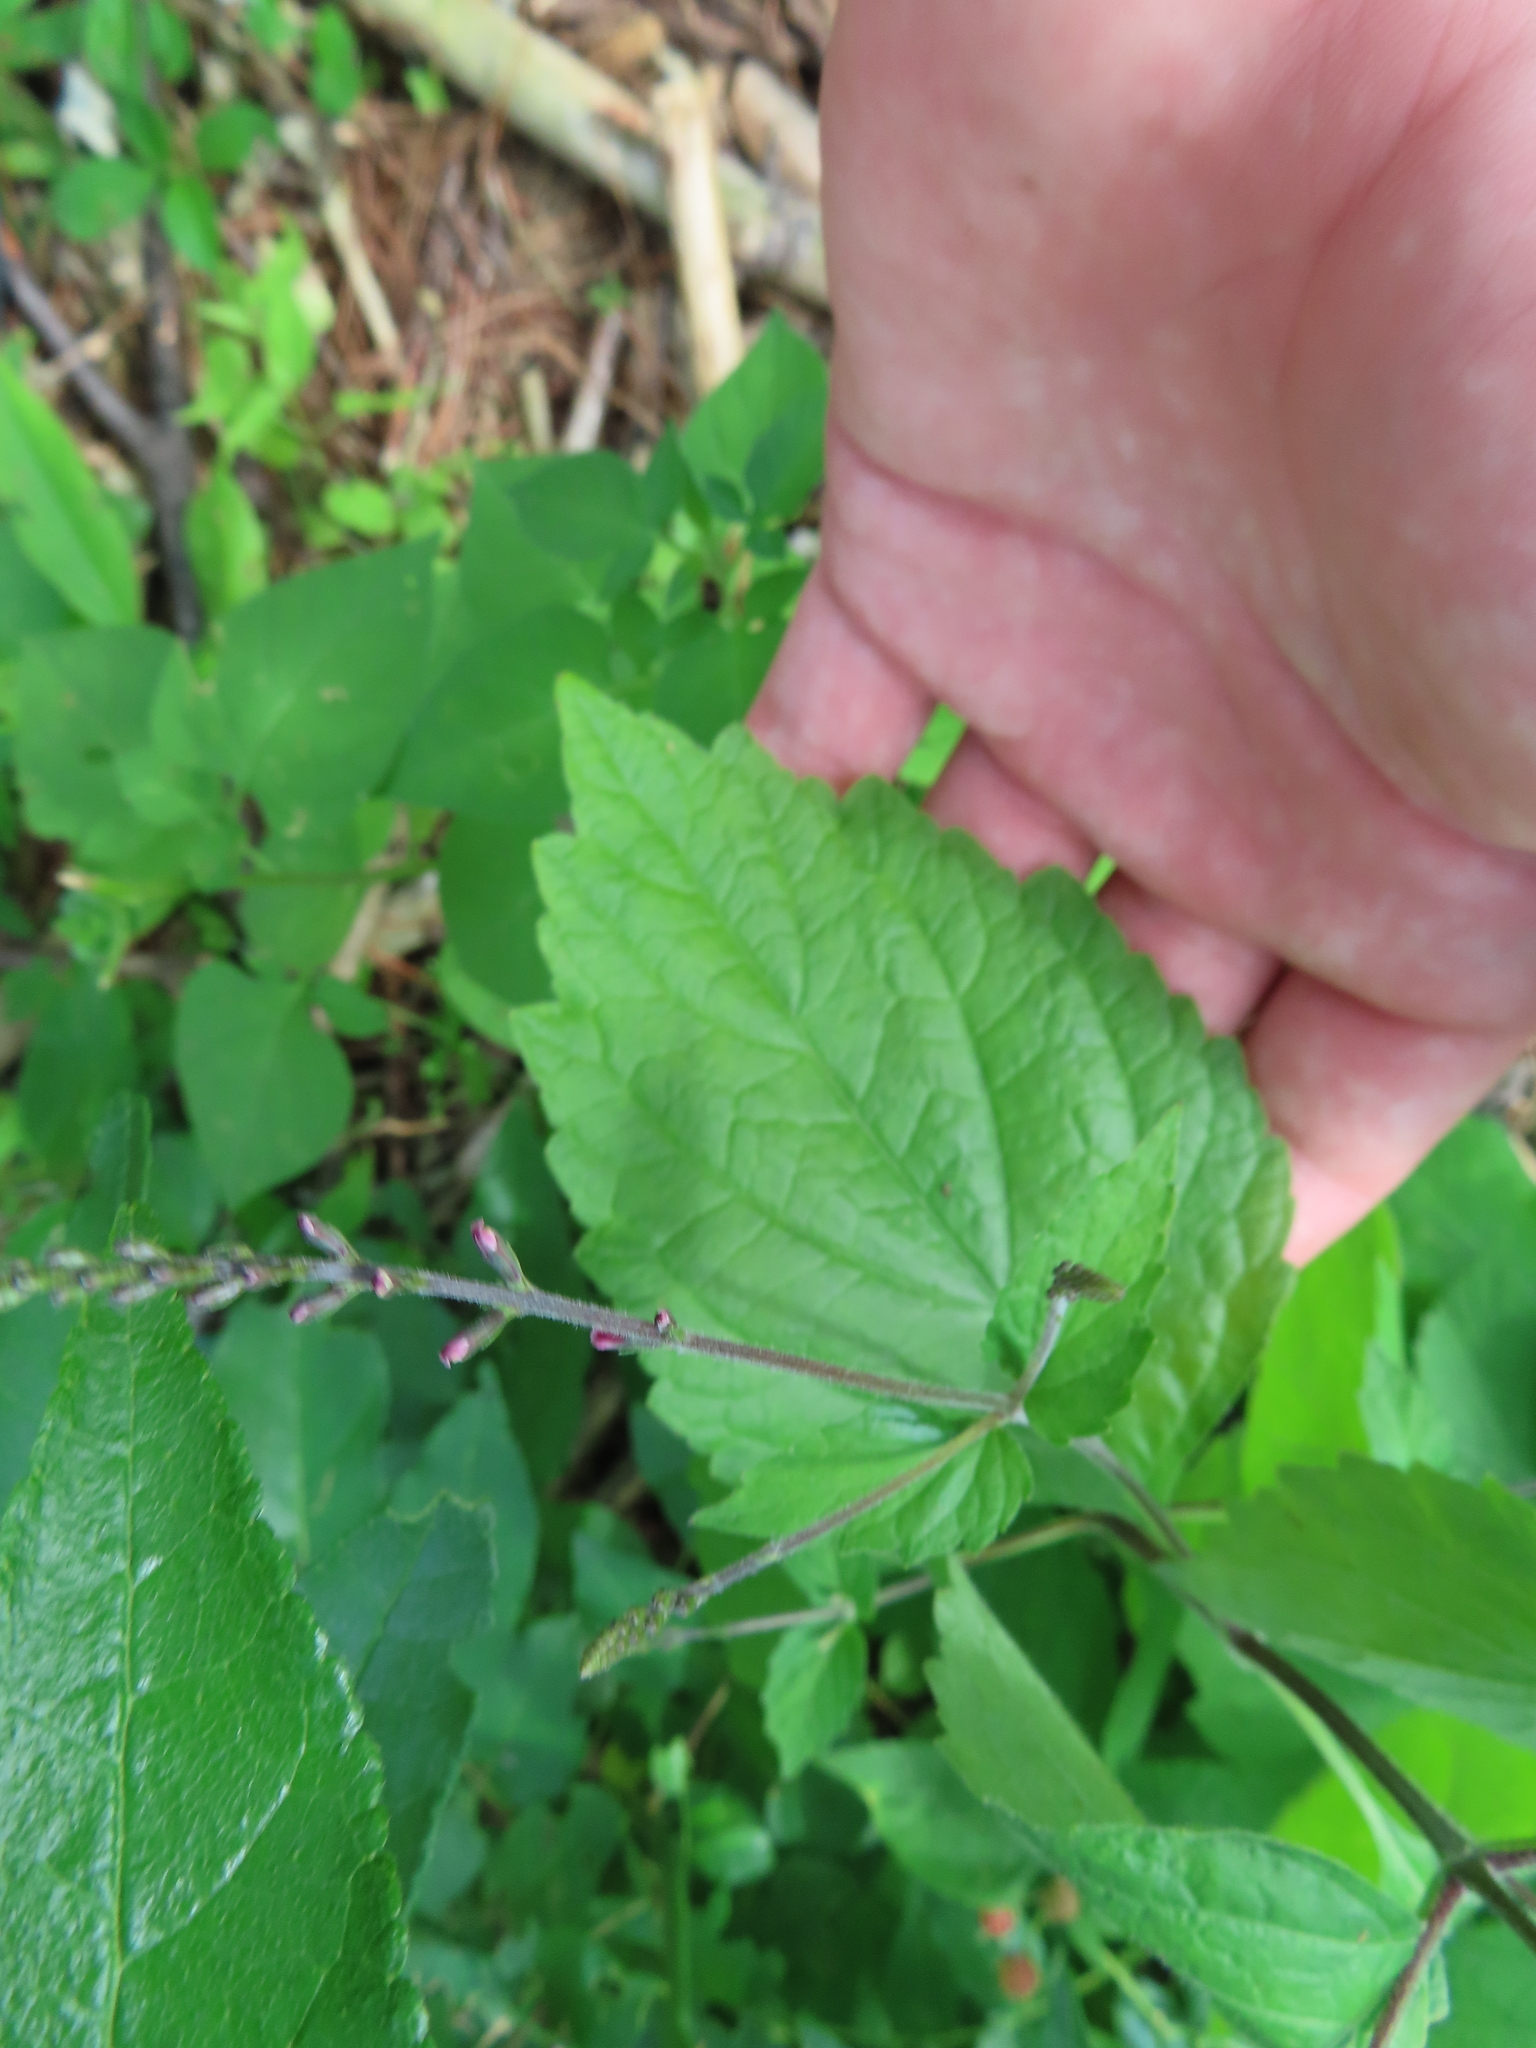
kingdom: Plantae
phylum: Tracheophyta
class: Magnoliopsida
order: Lamiales
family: Phrymaceae
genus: Phryma
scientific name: Phryma leptostachya
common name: American lopseed
